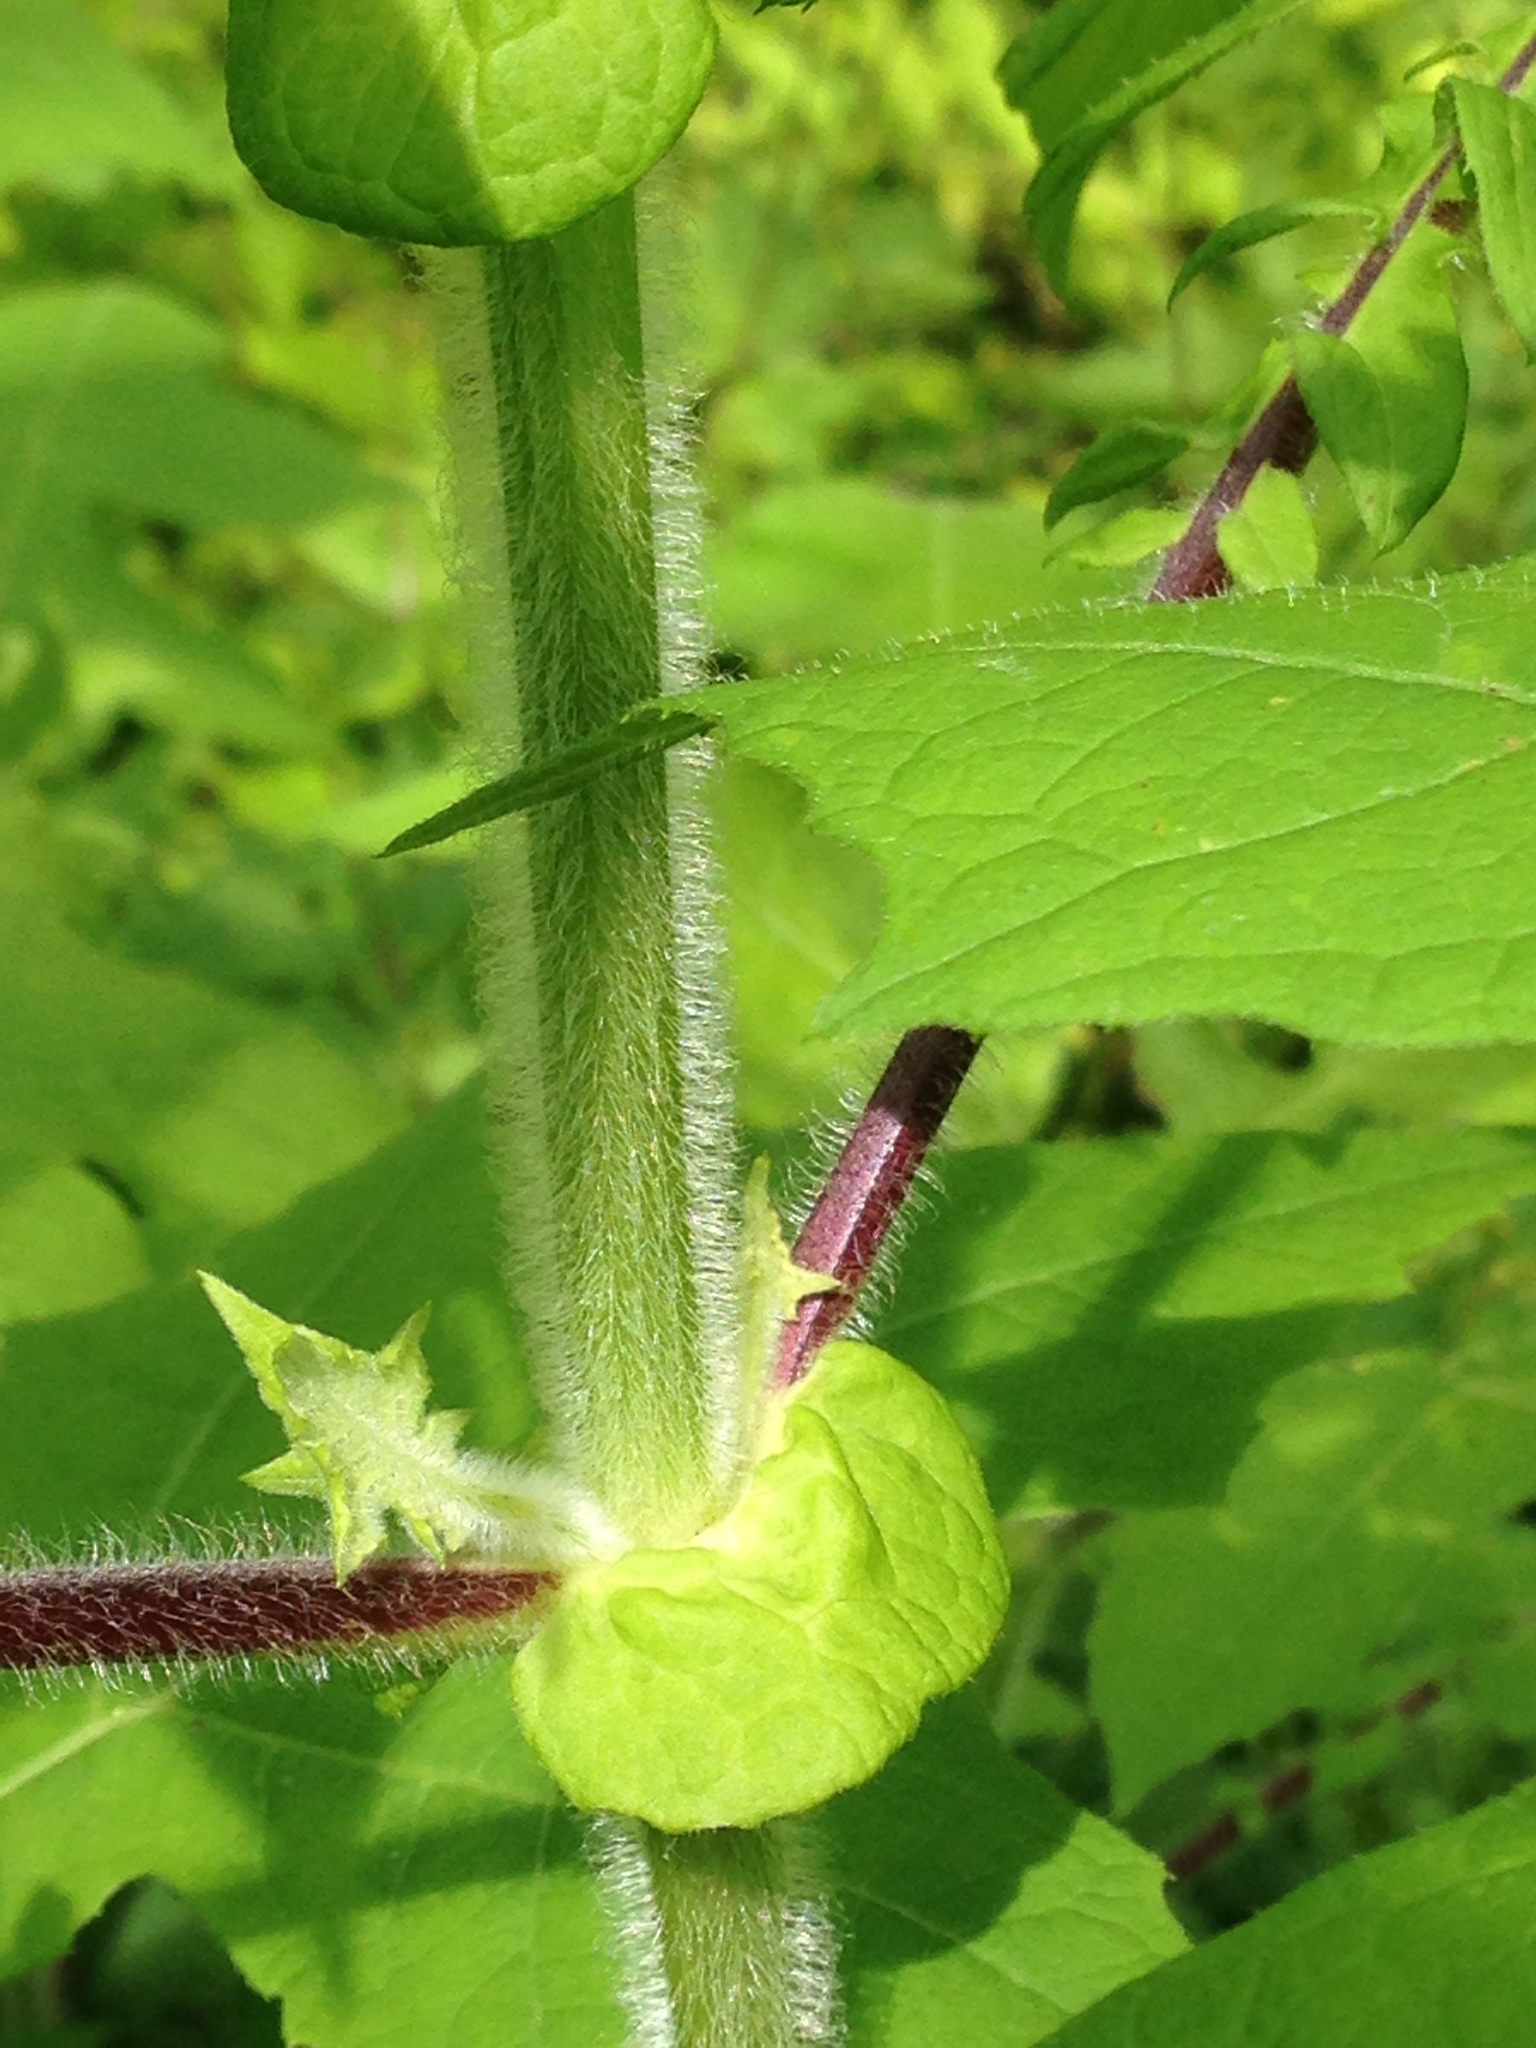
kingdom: Plantae
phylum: Tracheophyta
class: Magnoliopsida
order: Asterales
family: Asteraceae
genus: Polymnia
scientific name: Polymnia canadensis
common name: Pale-flowered leafcup
